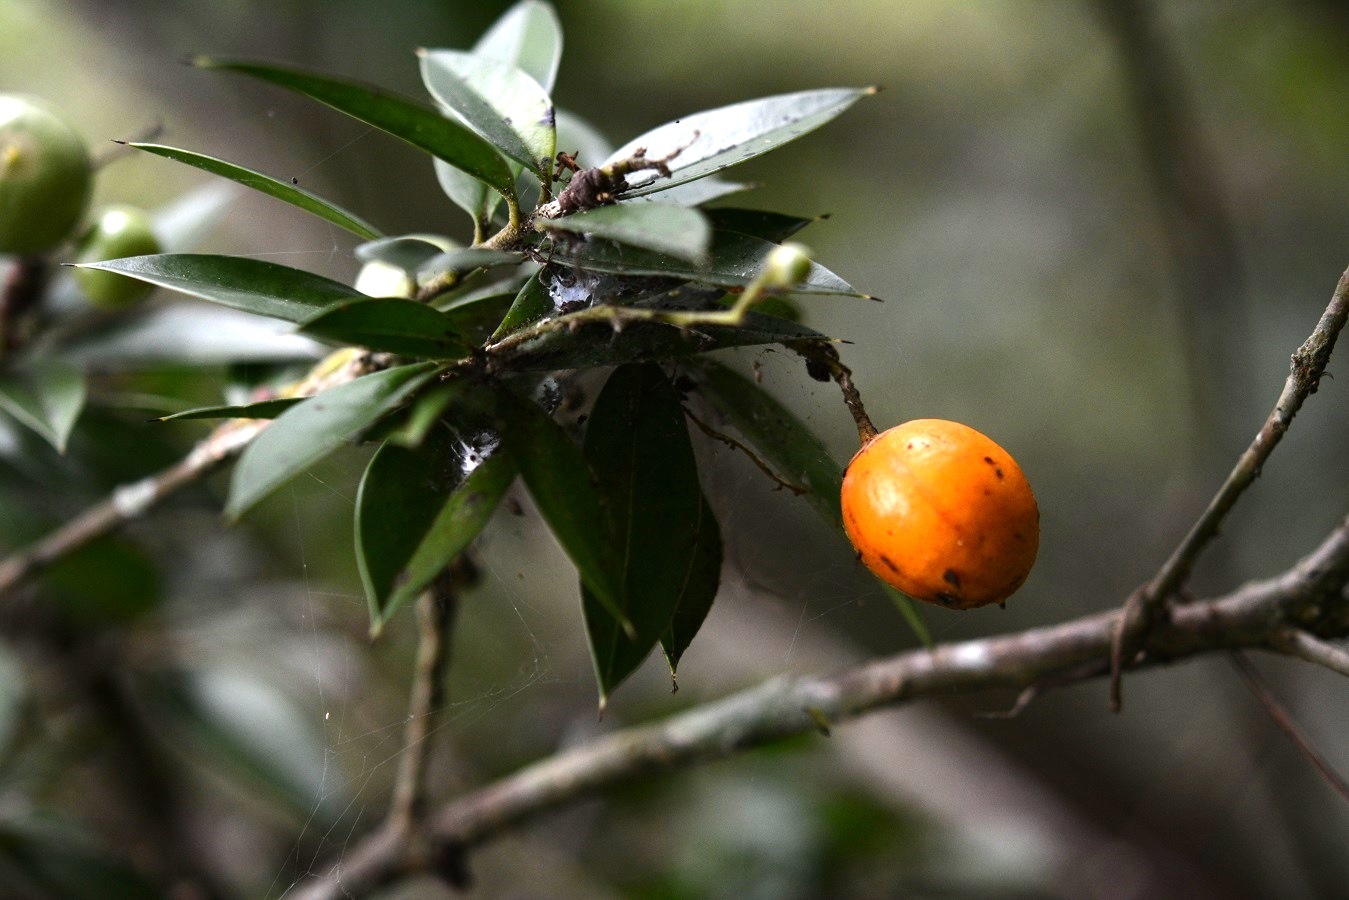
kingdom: Plantae
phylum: Tracheophyta
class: Magnoliopsida
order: Ericales
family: Primulaceae
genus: Bonellia
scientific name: Bonellia macrocarpa
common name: Primrose
